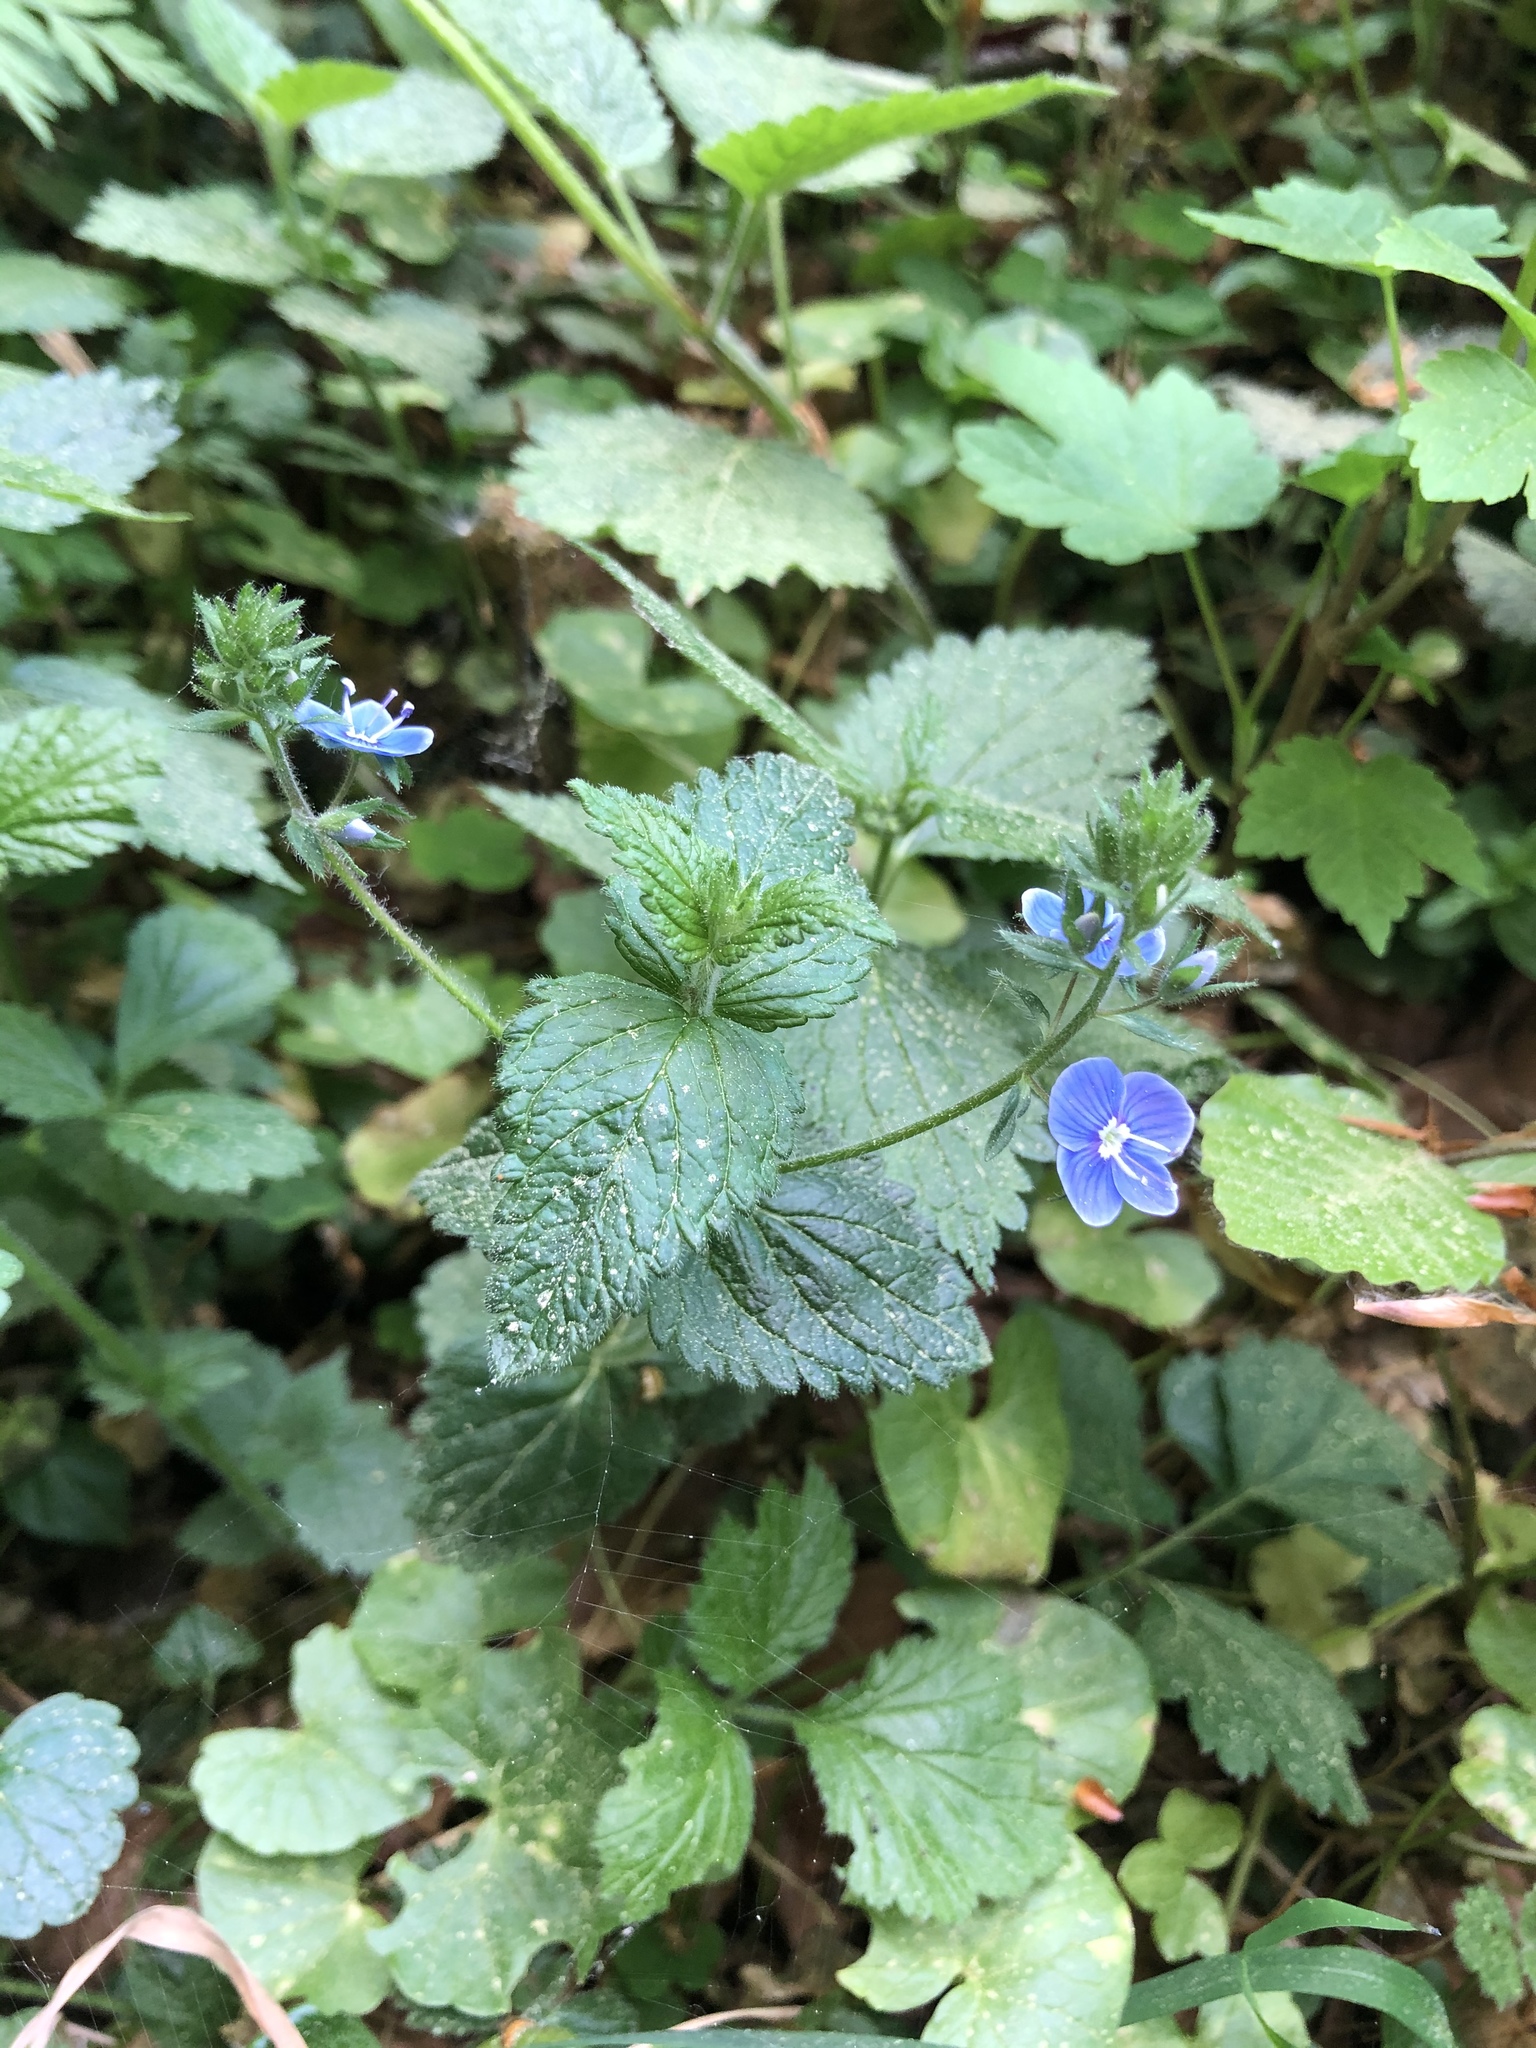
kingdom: Plantae
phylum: Tracheophyta
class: Magnoliopsida
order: Lamiales
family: Plantaginaceae
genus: Veronica
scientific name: Veronica chamaedrys
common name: Germander speedwell
